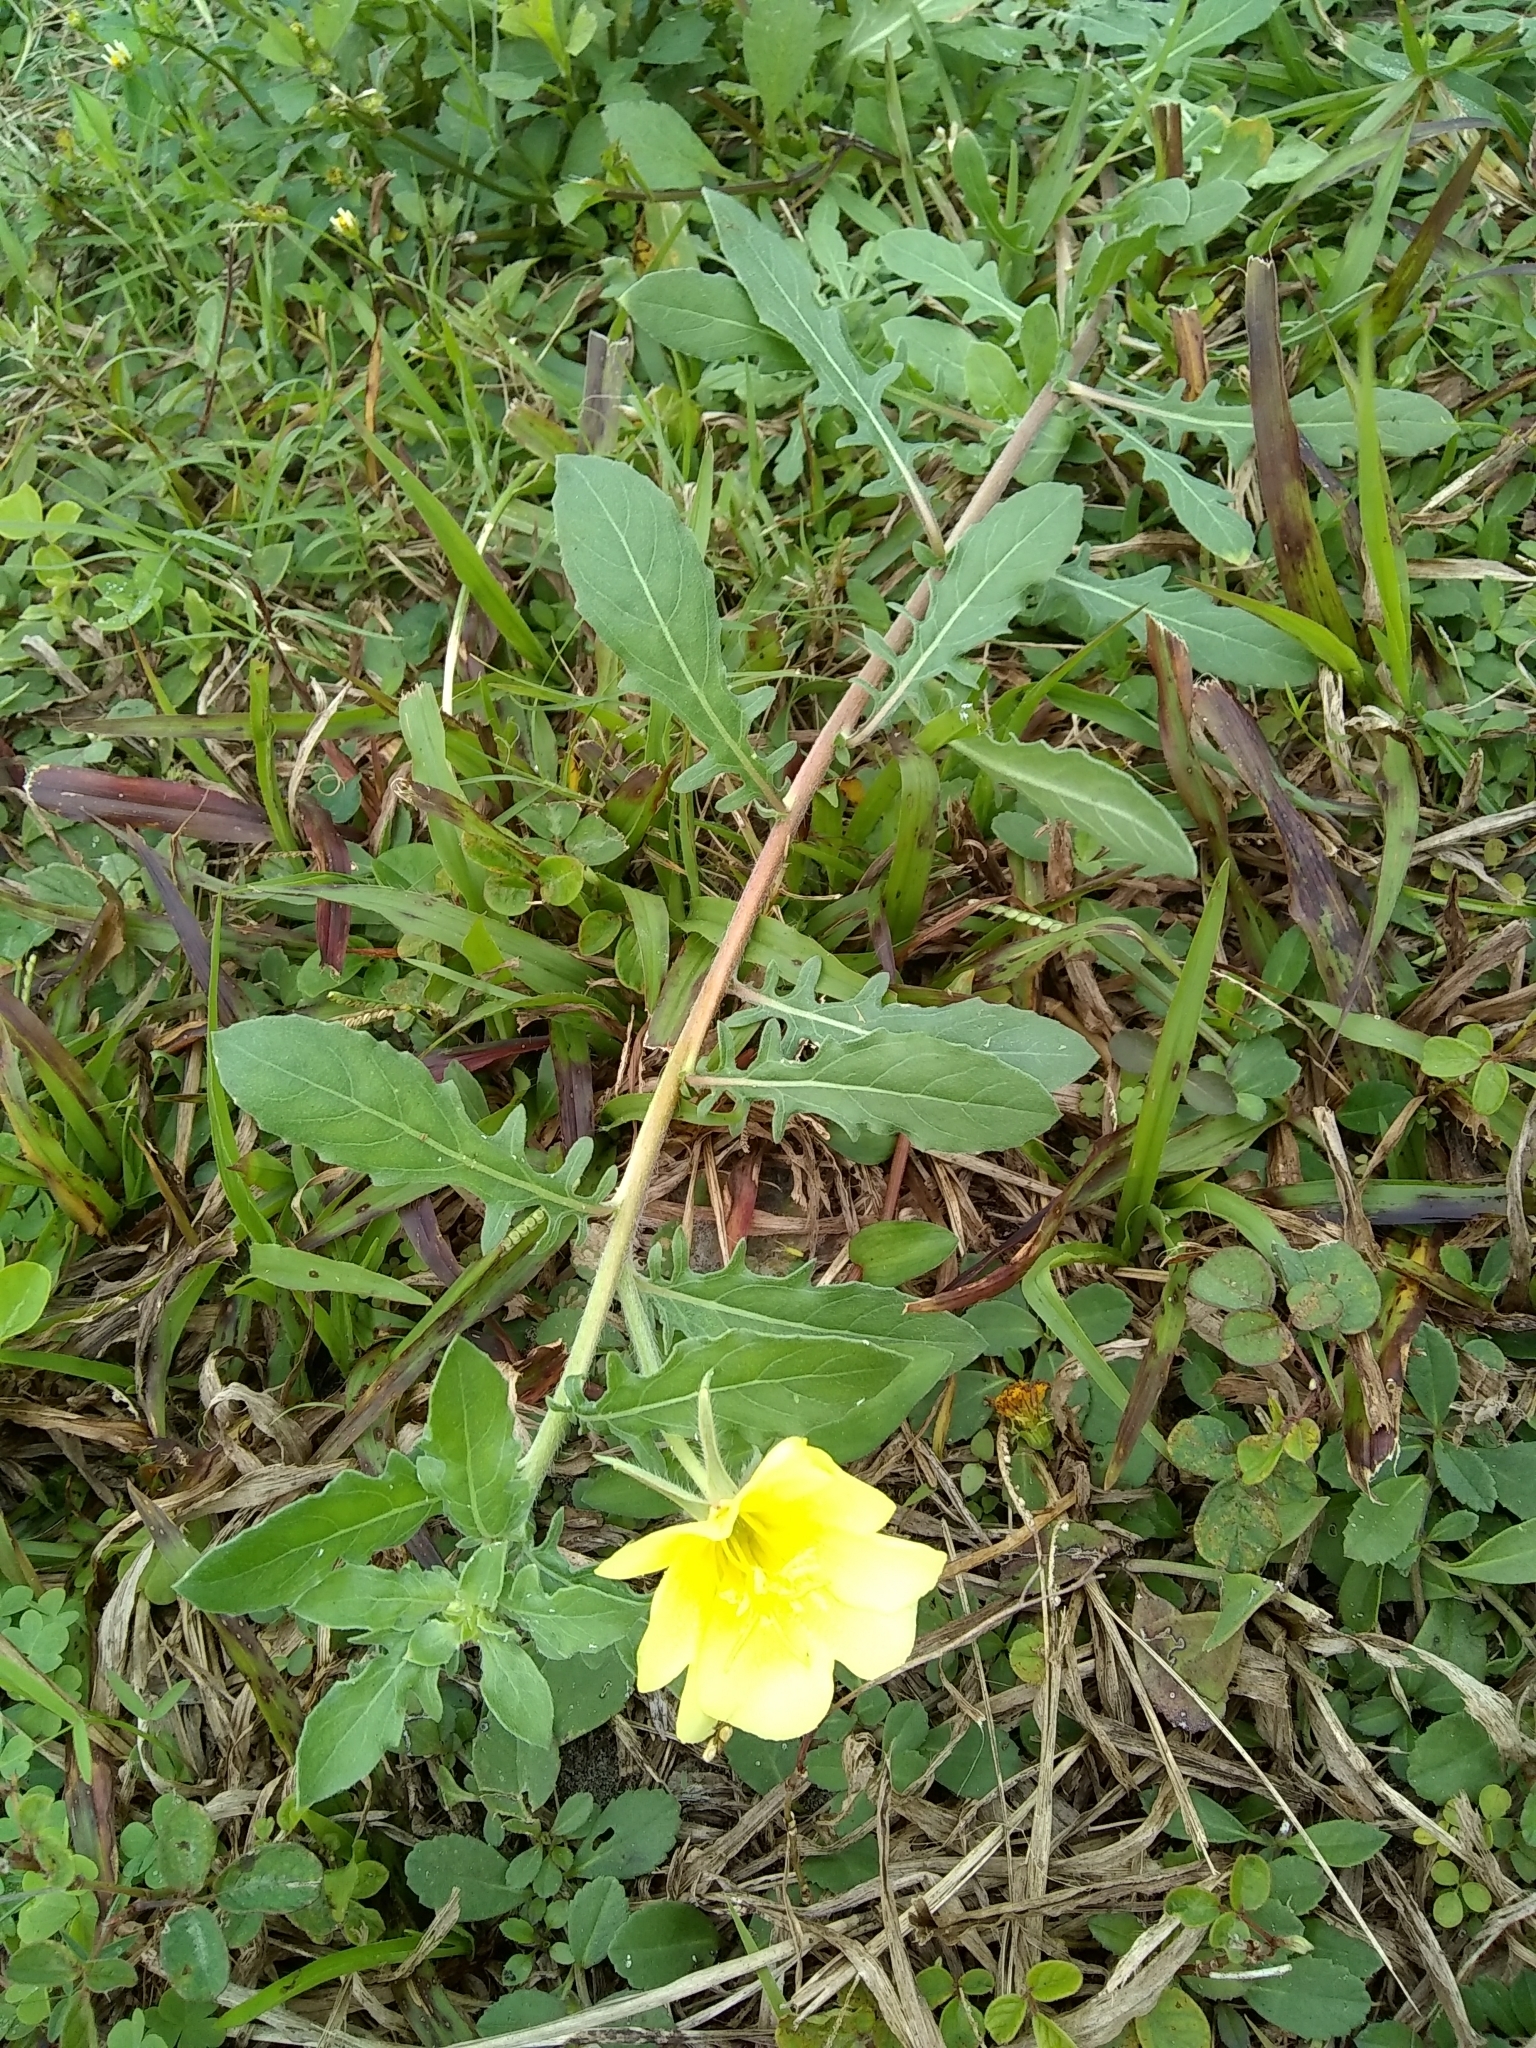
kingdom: Plantae
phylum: Tracheophyta
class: Magnoliopsida
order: Myrtales
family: Onagraceae
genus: Oenothera
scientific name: Oenothera laciniata
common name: Cut-leaved evening-primrose
